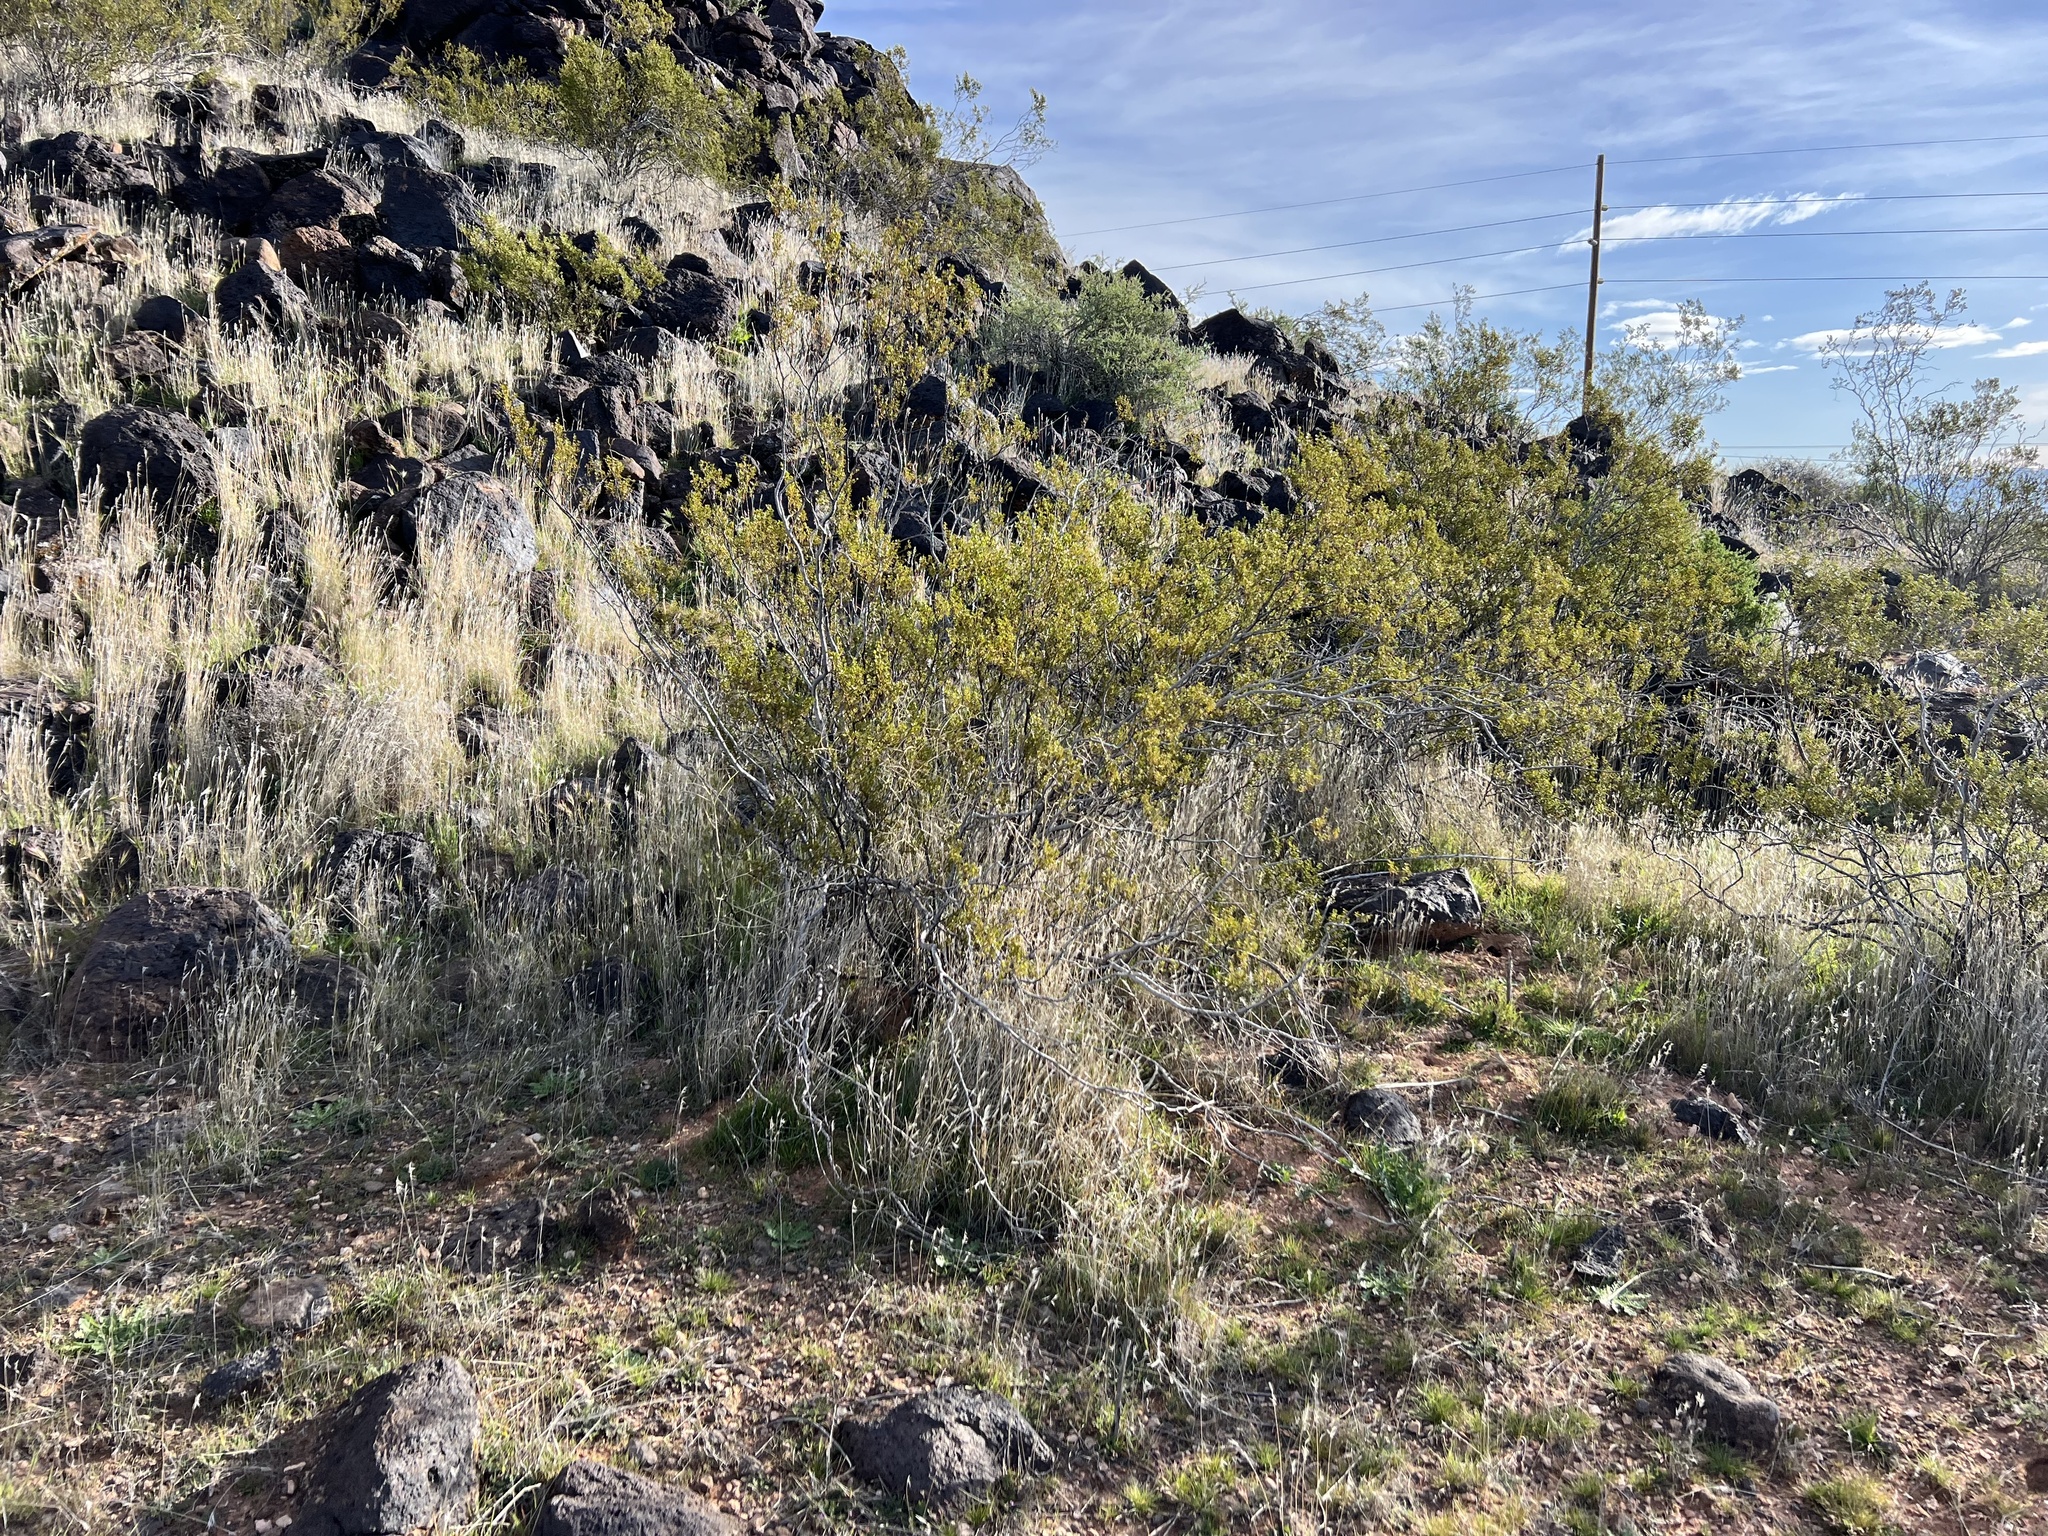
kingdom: Plantae
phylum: Tracheophyta
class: Magnoliopsida
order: Zygophyllales
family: Zygophyllaceae
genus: Larrea
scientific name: Larrea tridentata
